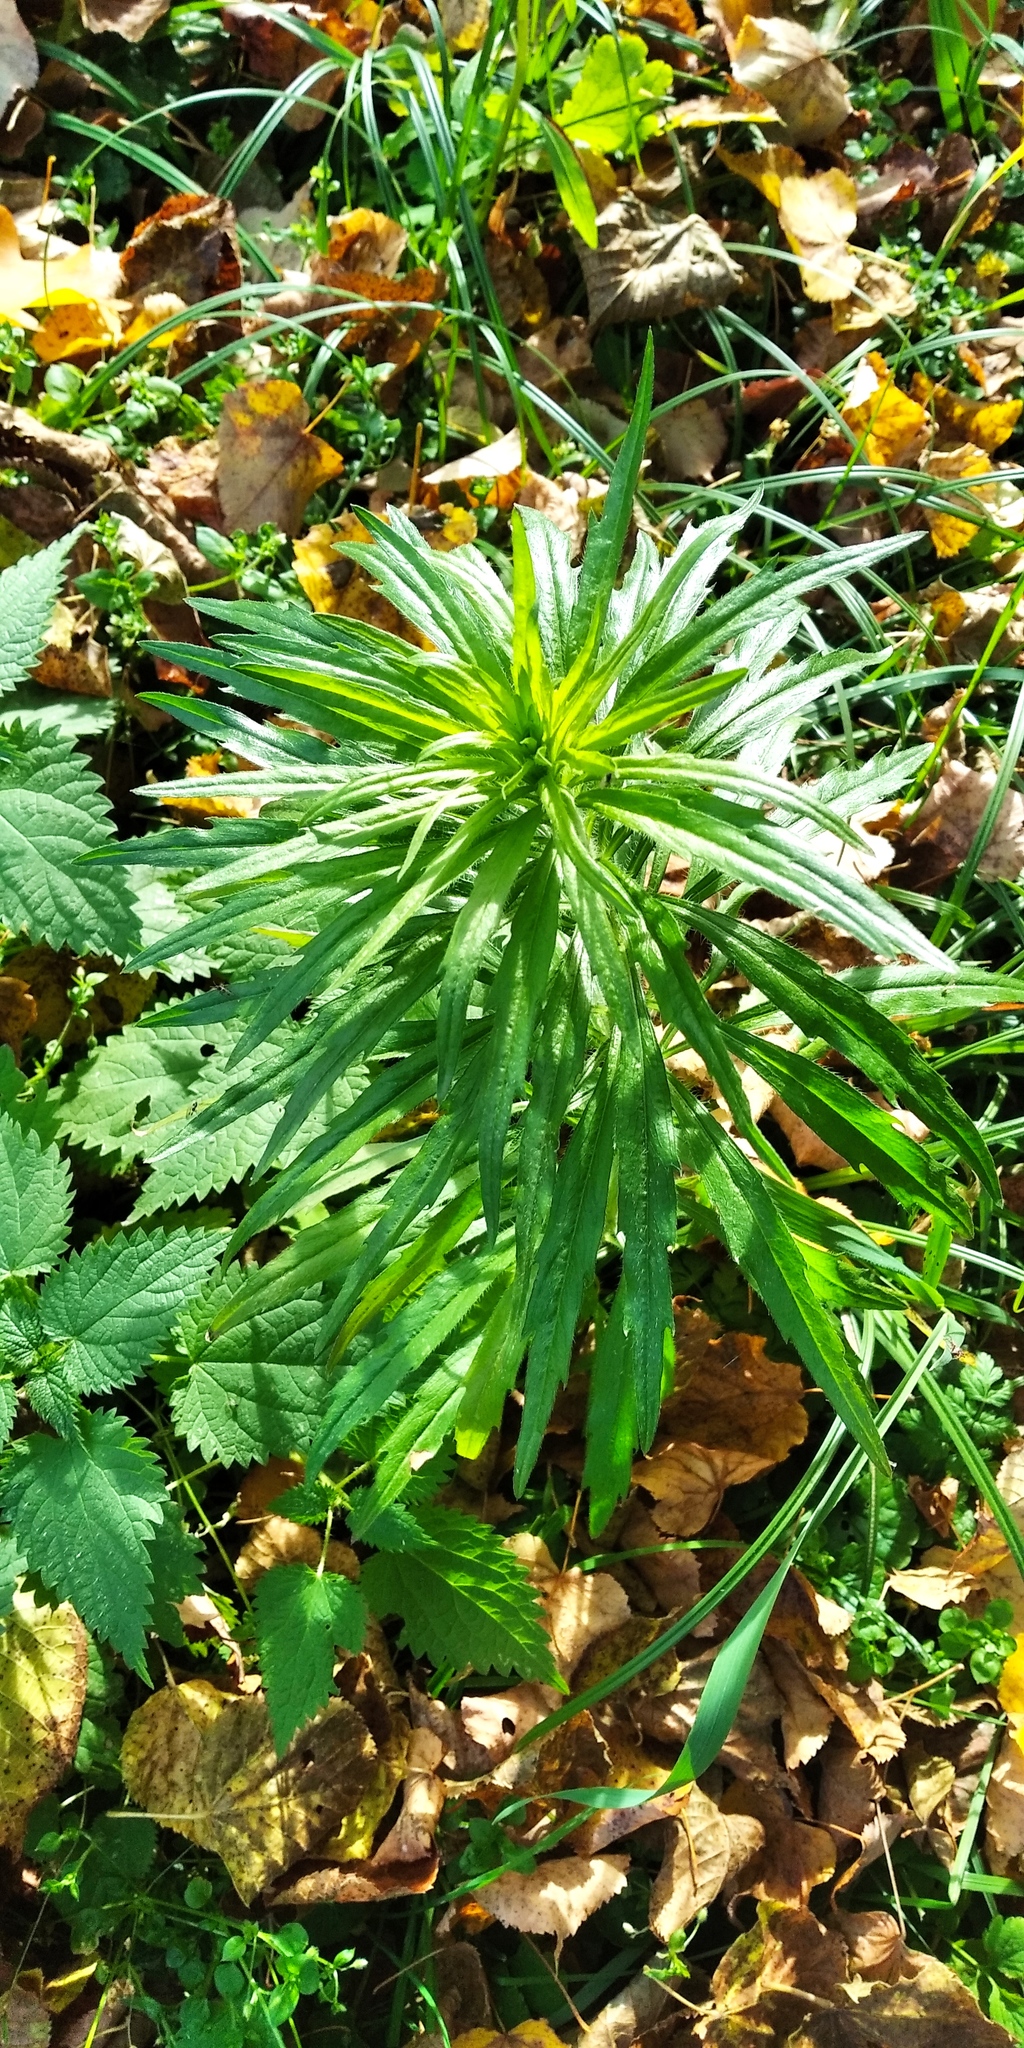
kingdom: Plantae
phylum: Tracheophyta
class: Magnoliopsida
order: Asterales
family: Asteraceae
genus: Erigeron
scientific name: Erigeron canadensis
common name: Canadian fleabane
